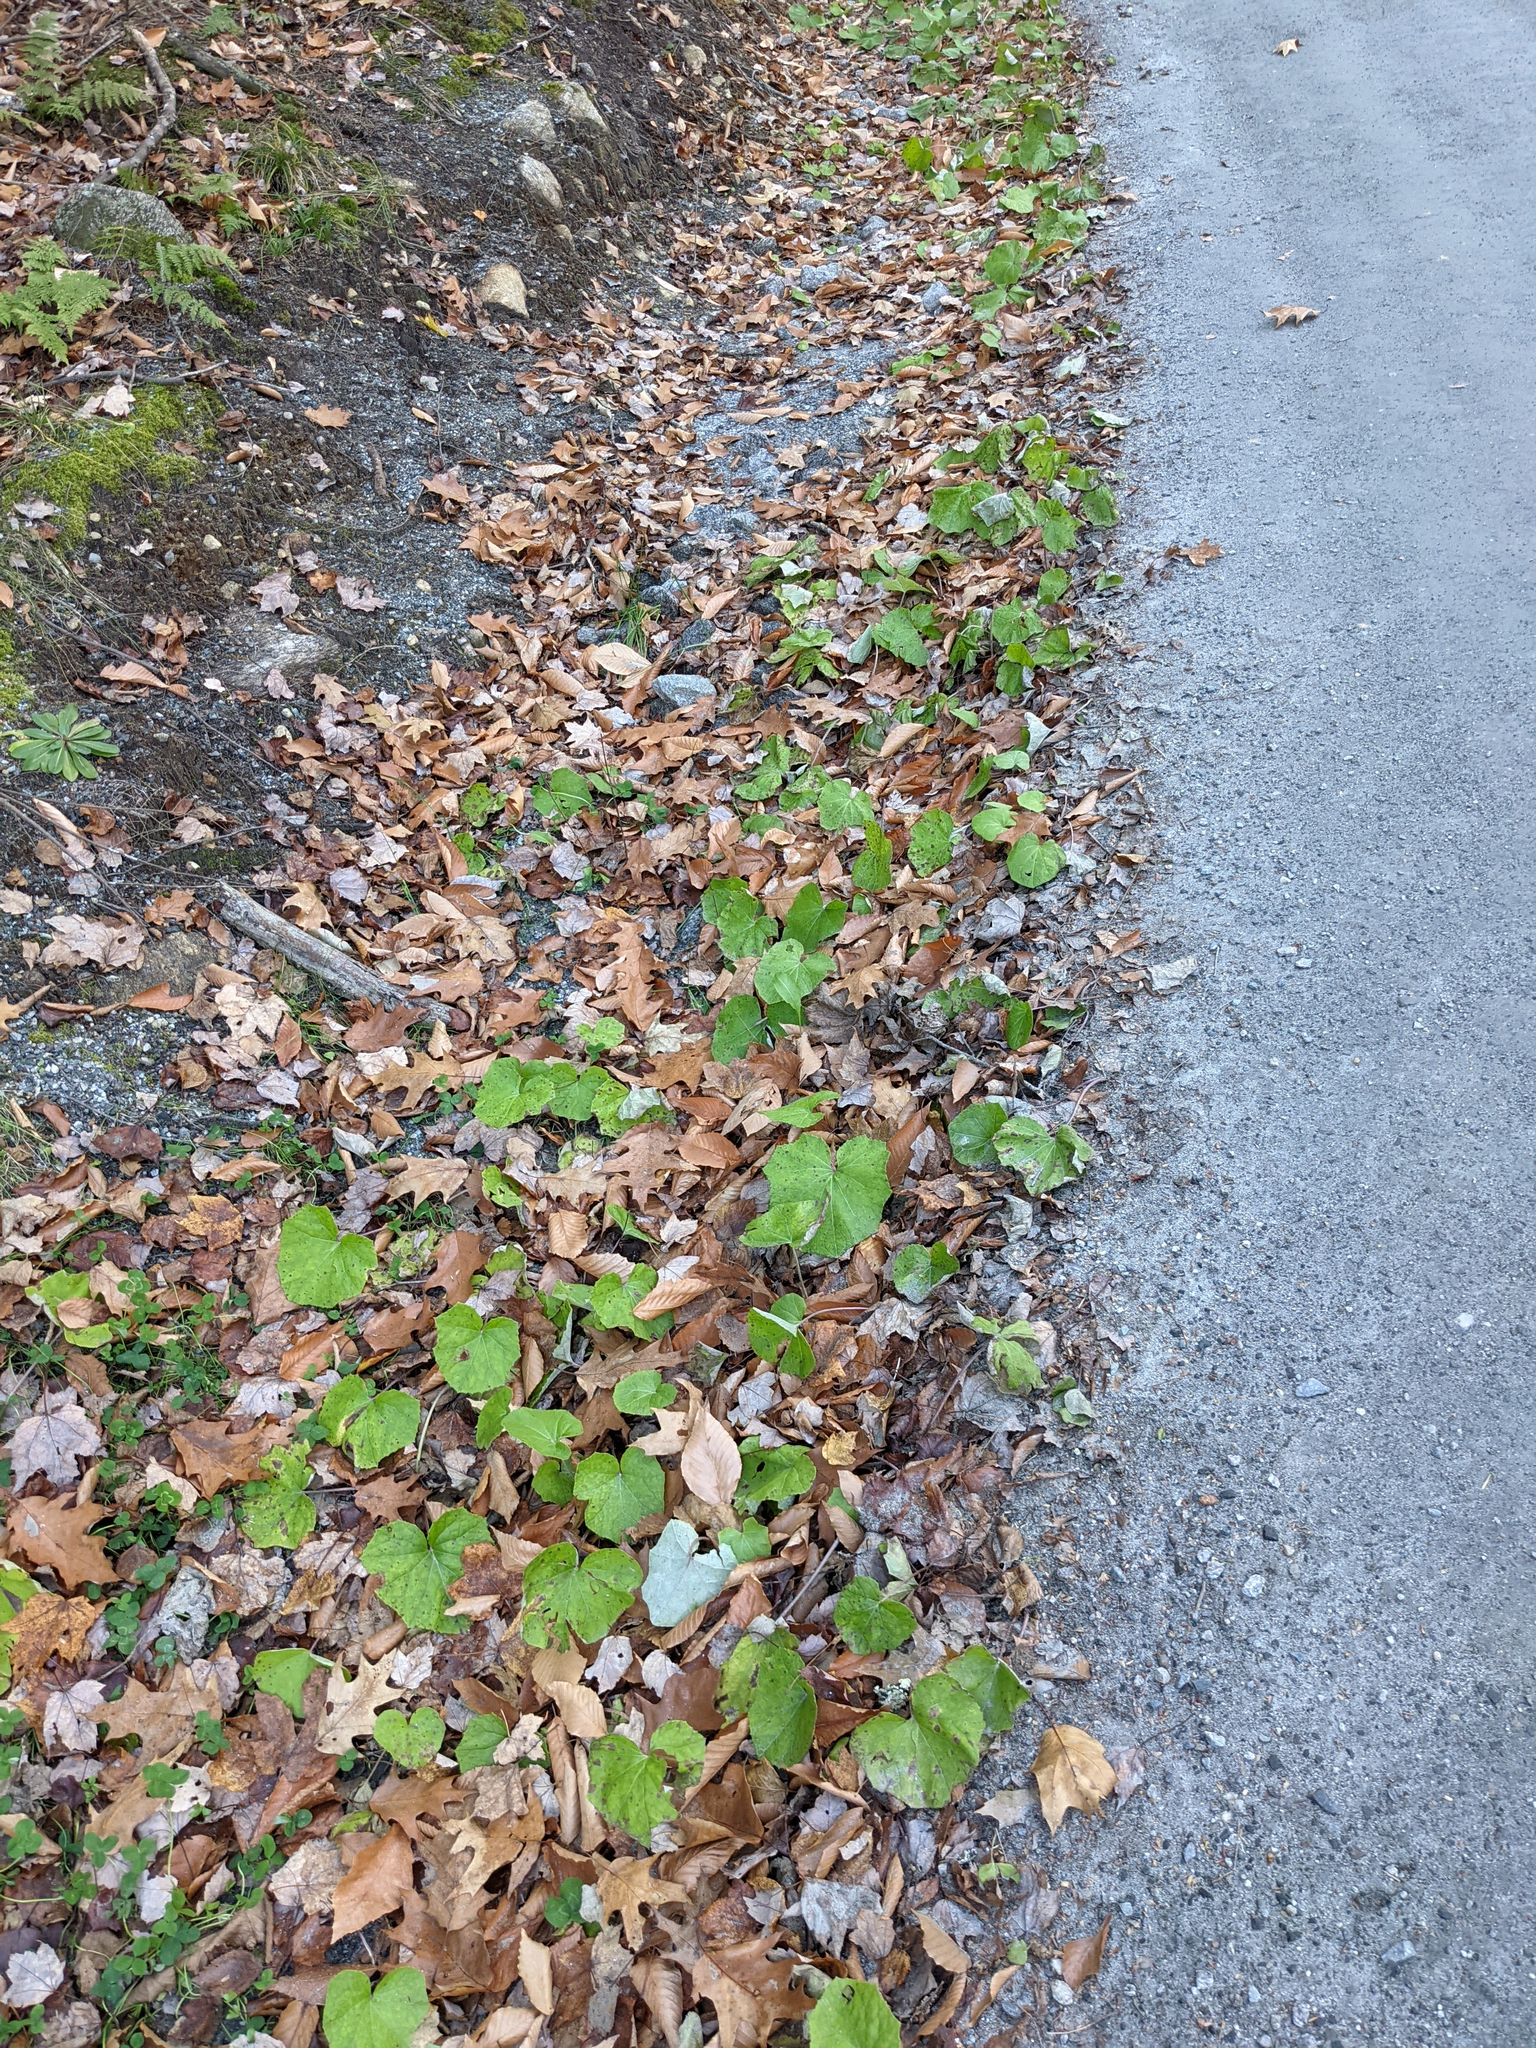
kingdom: Plantae
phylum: Tracheophyta
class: Magnoliopsida
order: Asterales
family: Asteraceae
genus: Tussilago
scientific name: Tussilago farfara
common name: Coltsfoot
